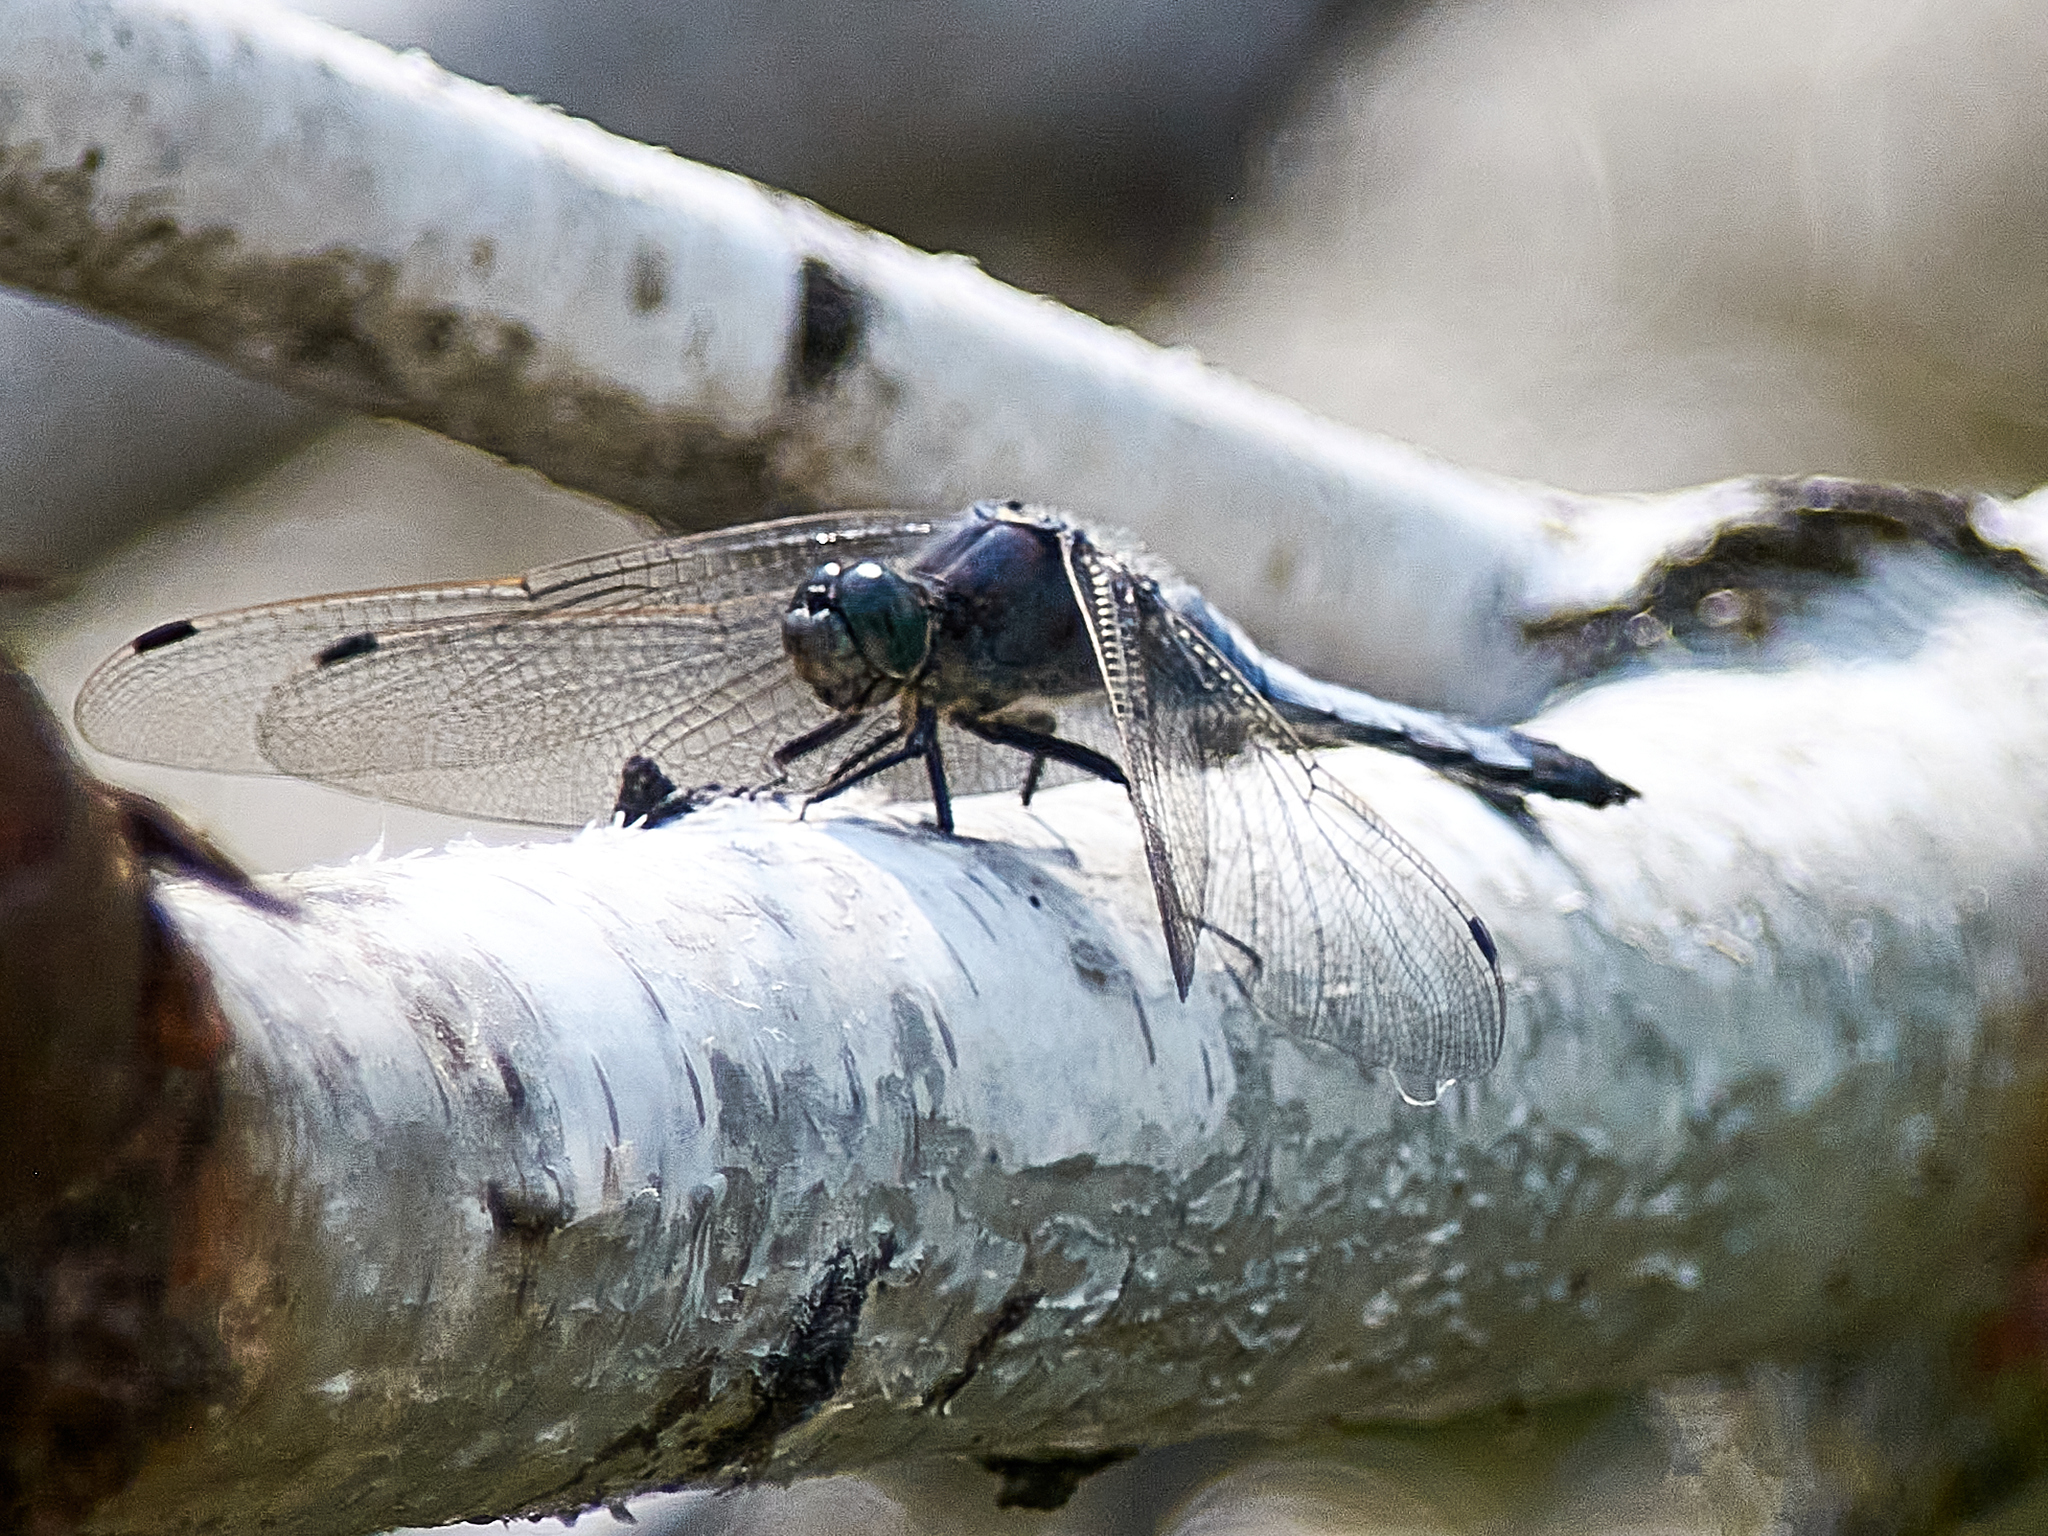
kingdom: Animalia
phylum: Arthropoda
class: Insecta
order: Odonata
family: Libellulidae
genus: Orthetrum
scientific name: Orthetrum cancellatum
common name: Black-tailed skimmer
